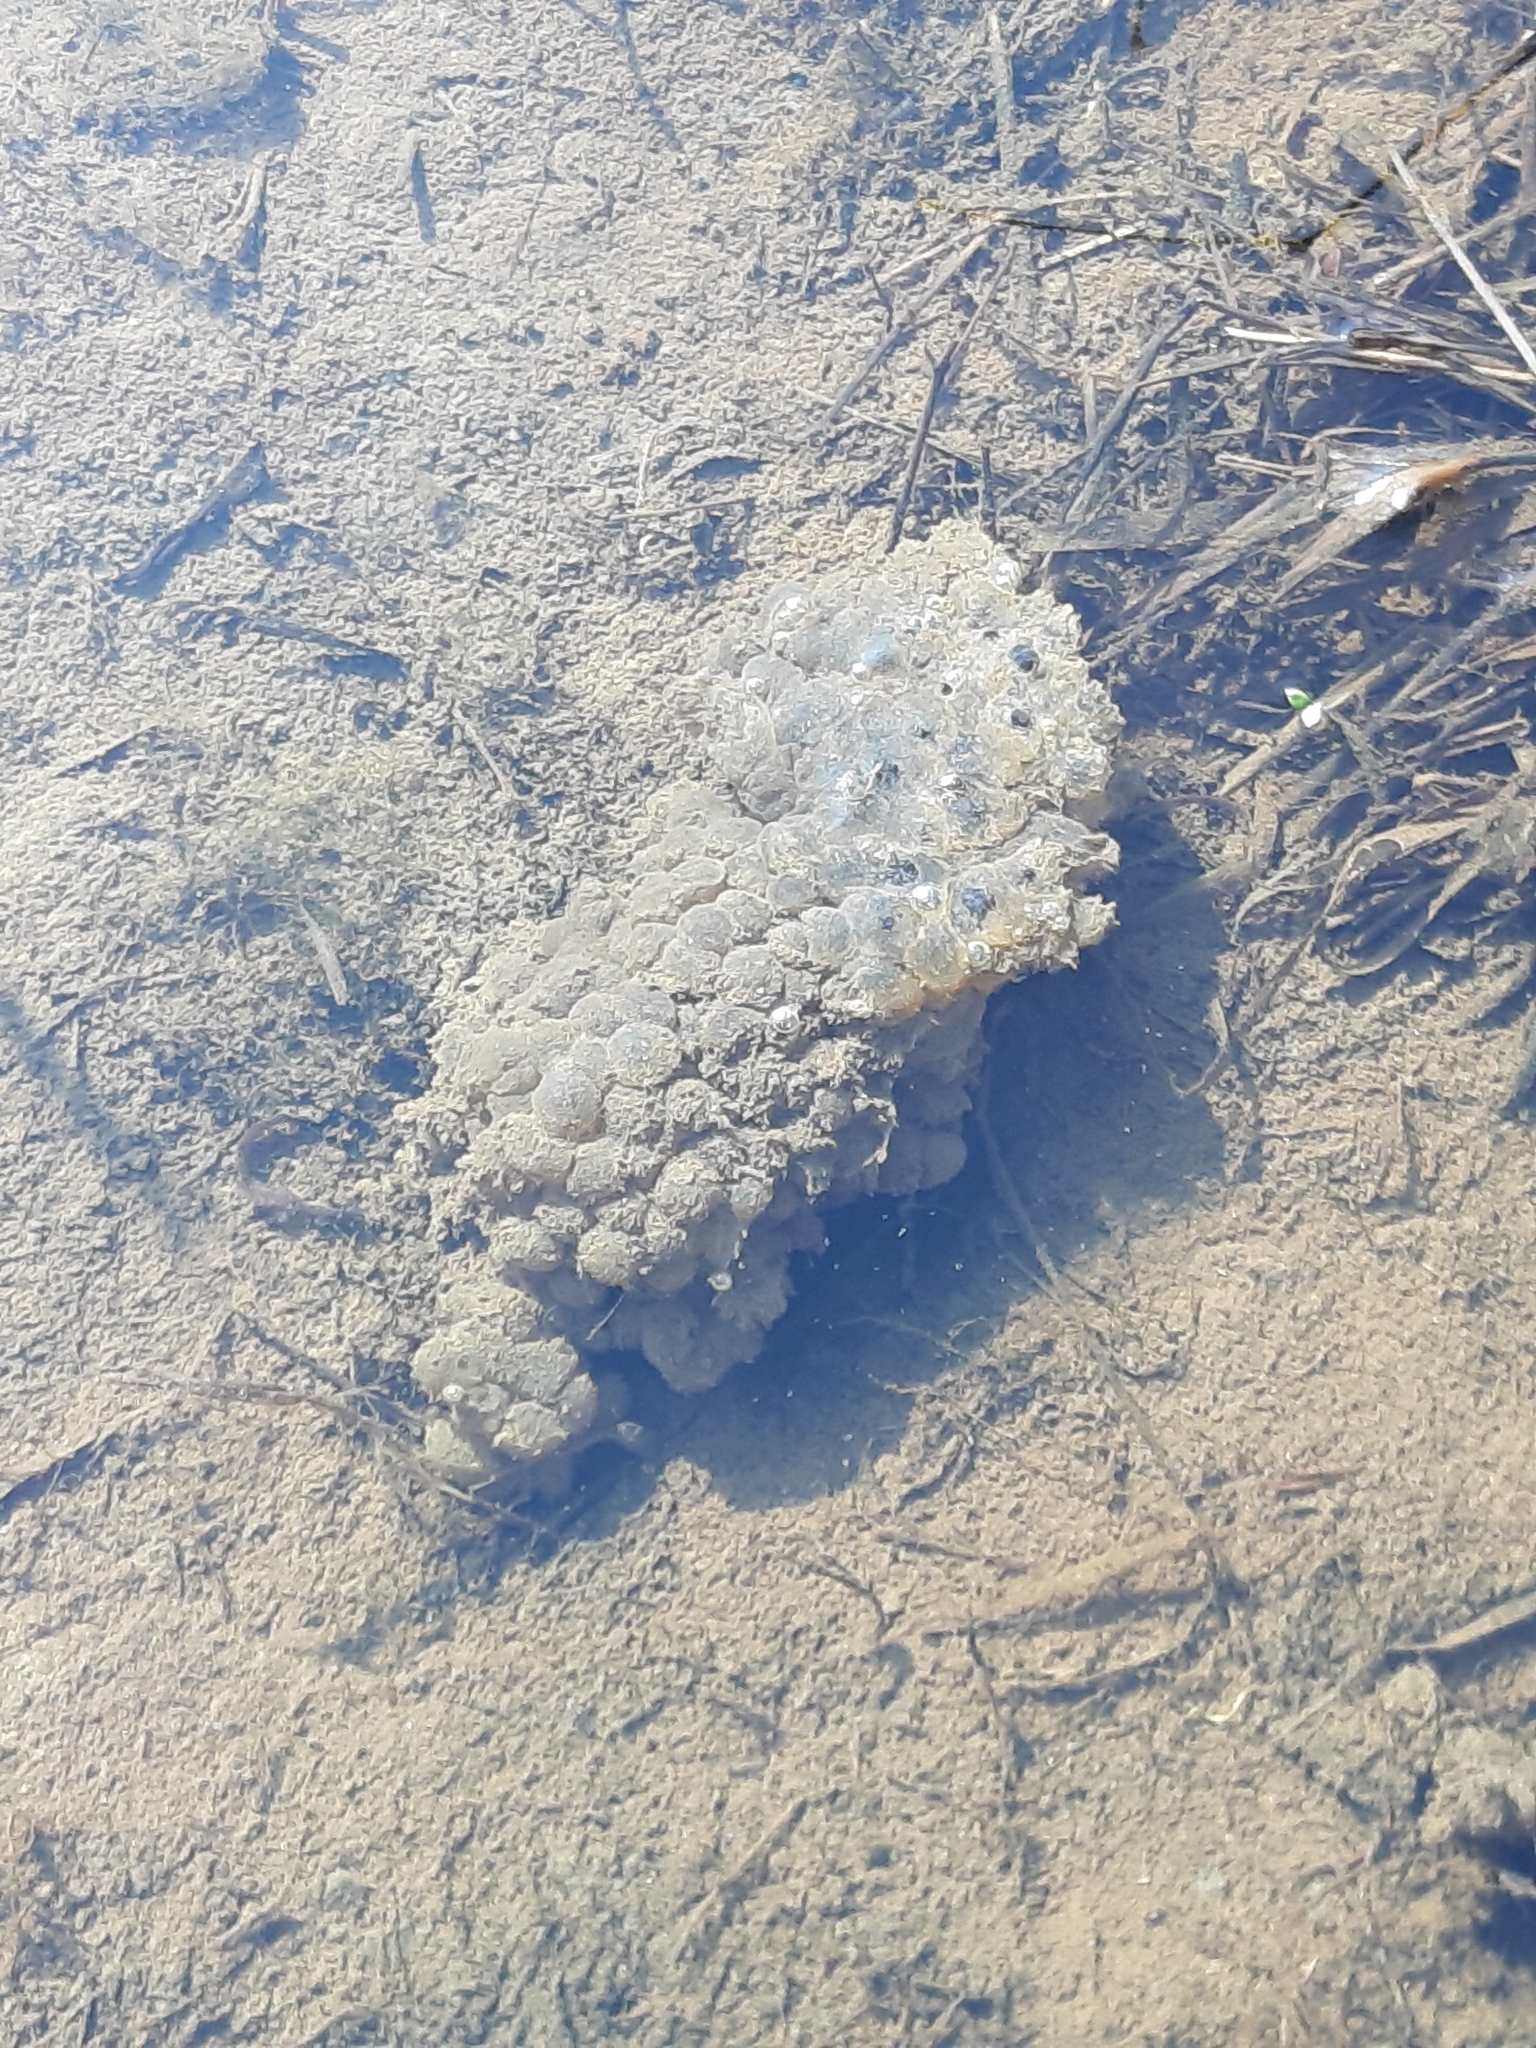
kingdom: Animalia
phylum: Chordata
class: Amphibia
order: Anura
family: Ranidae
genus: Rana
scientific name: Rana dalmatina
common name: Agile frog
